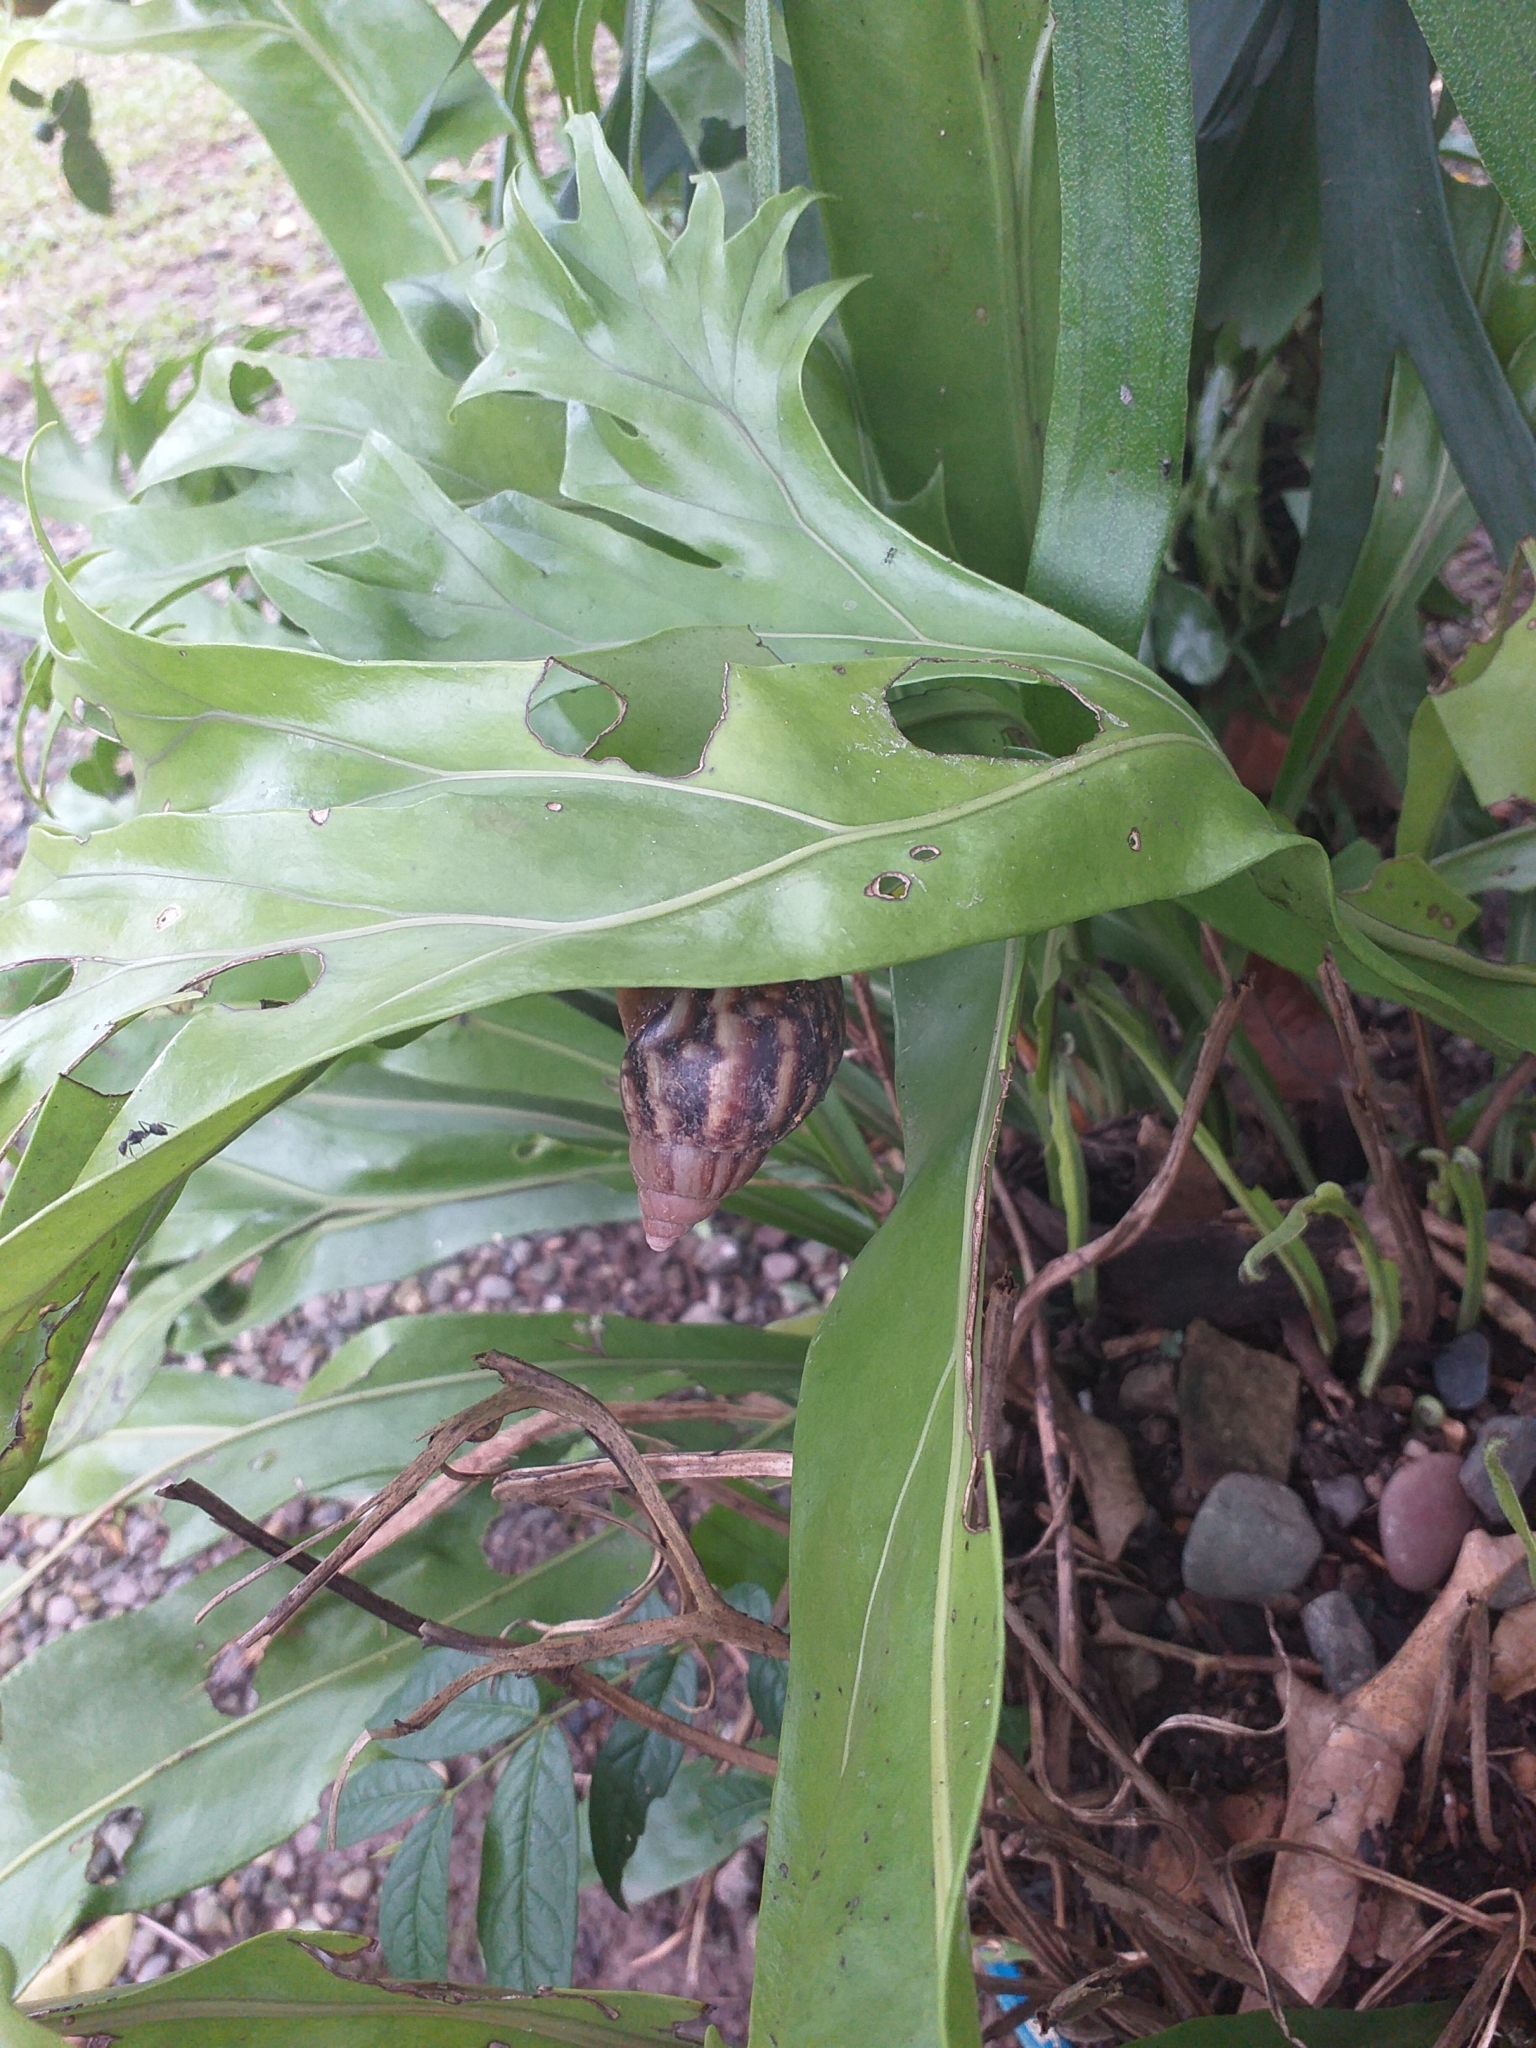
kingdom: Animalia
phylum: Mollusca
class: Gastropoda
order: Stylommatophora
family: Achatinidae
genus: Lissachatina
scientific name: Lissachatina fulica
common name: Giant african snail
